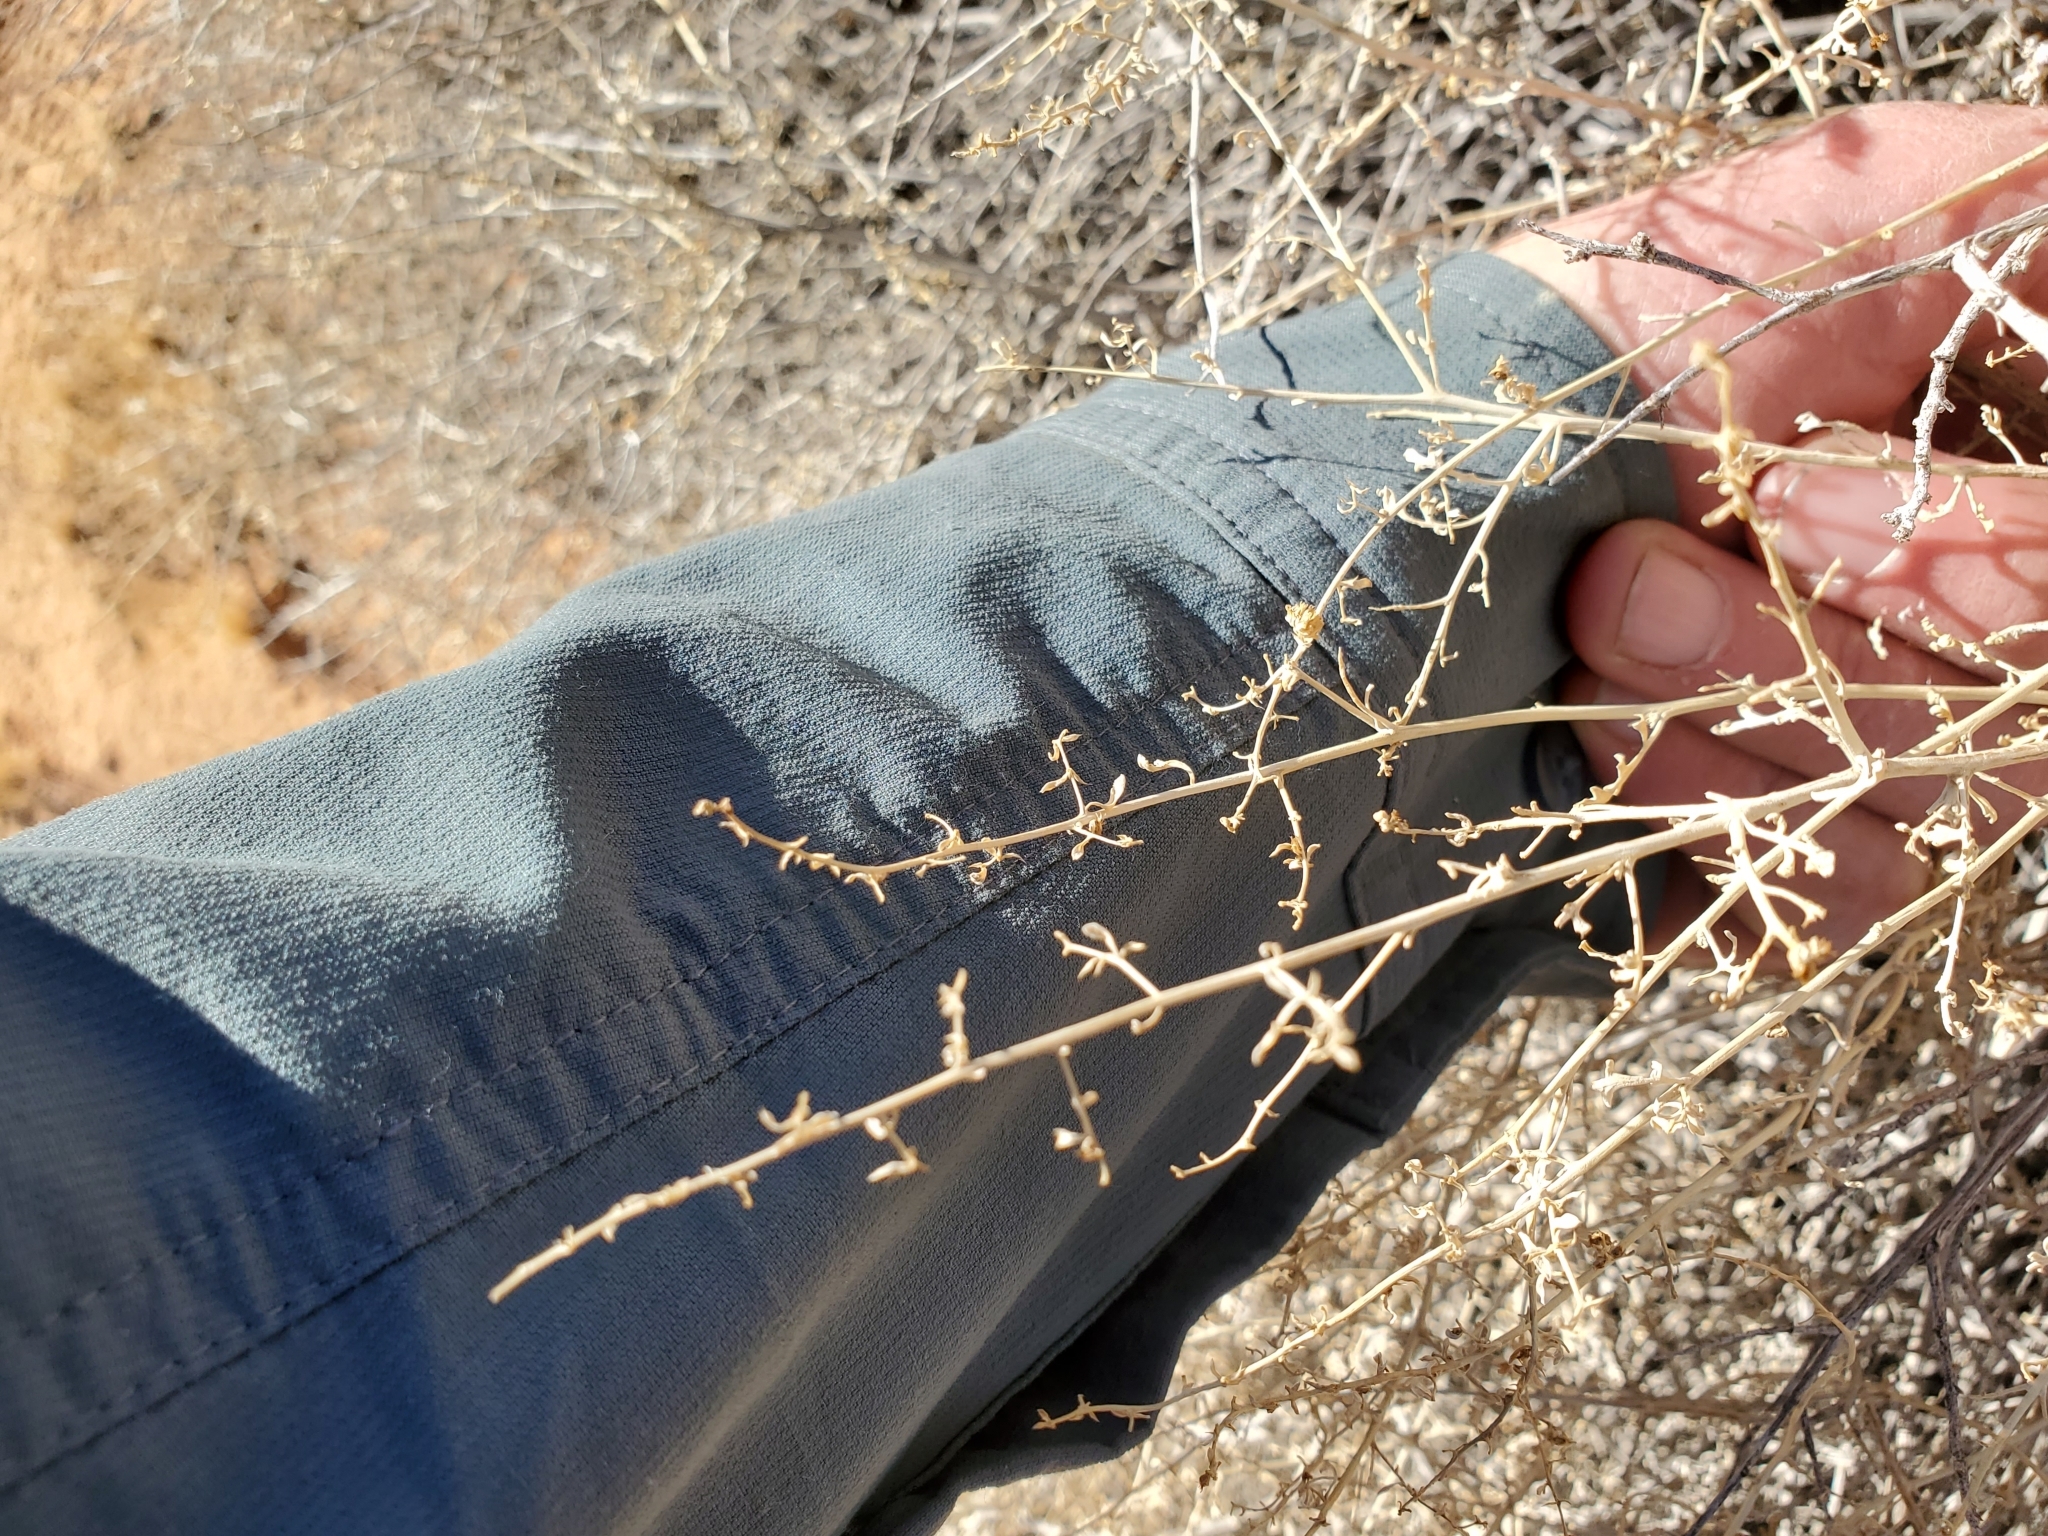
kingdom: Plantae
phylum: Tracheophyta
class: Magnoliopsida
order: Asterales
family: Asteraceae
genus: Ambrosia
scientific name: Ambrosia dumosa
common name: Bur-sage
